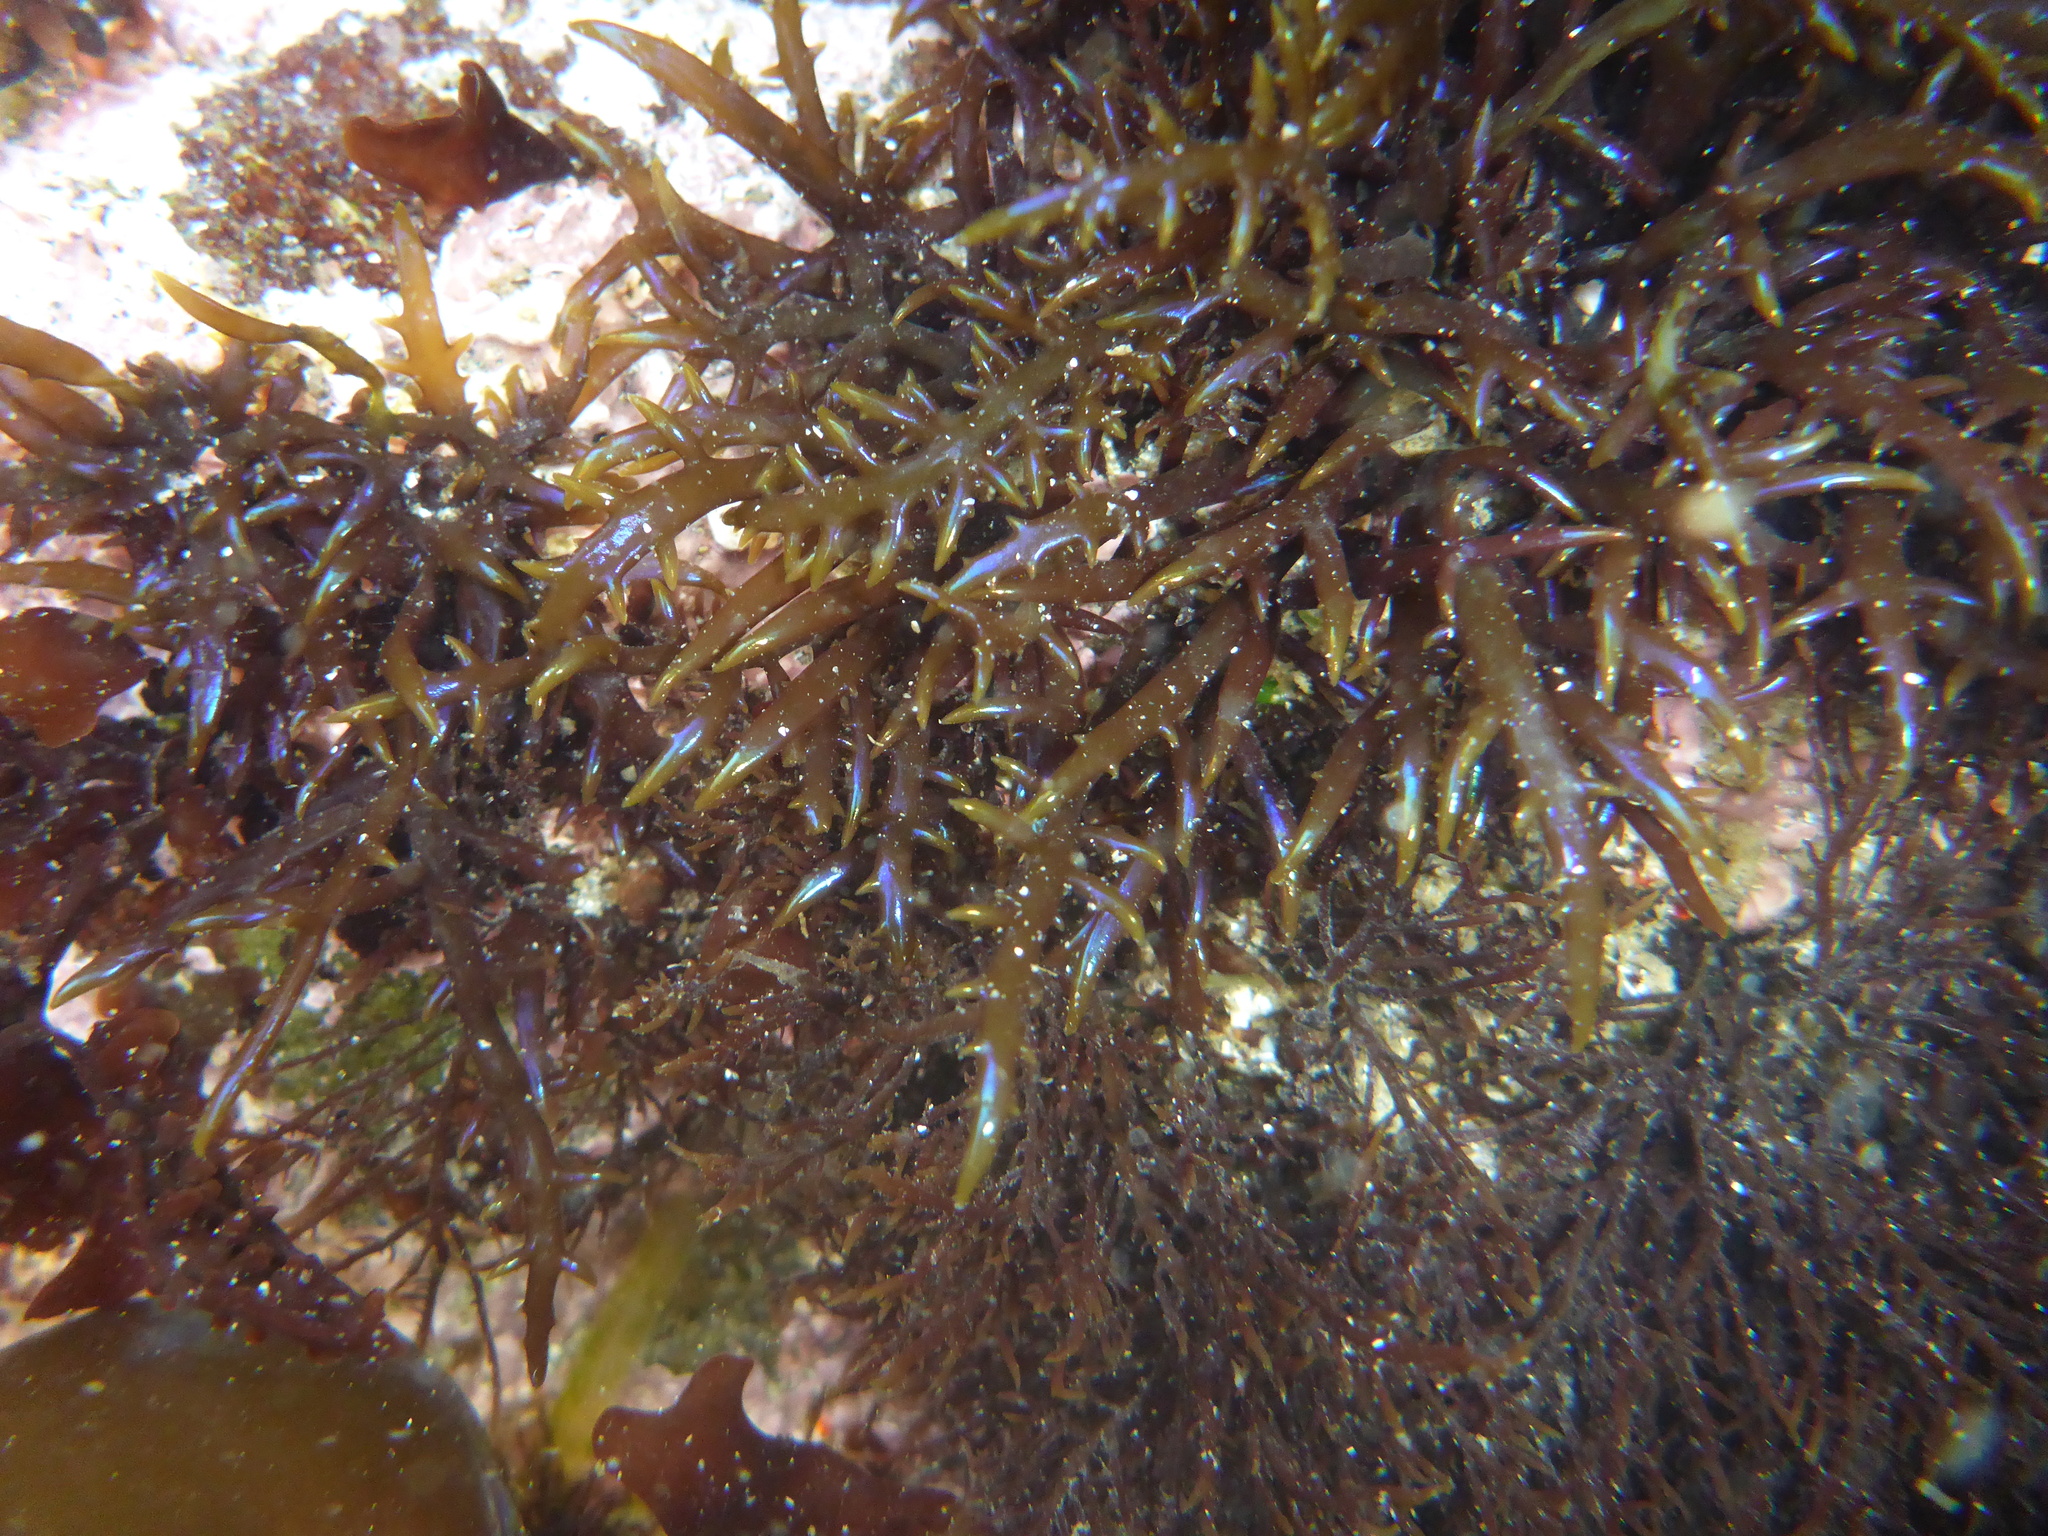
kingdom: Plantae
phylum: Rhodophyta
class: Florideophyceae
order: Gigartinales
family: Gigartinaceae
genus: Chondracanthus
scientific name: Chondracanthus canaliculatus
